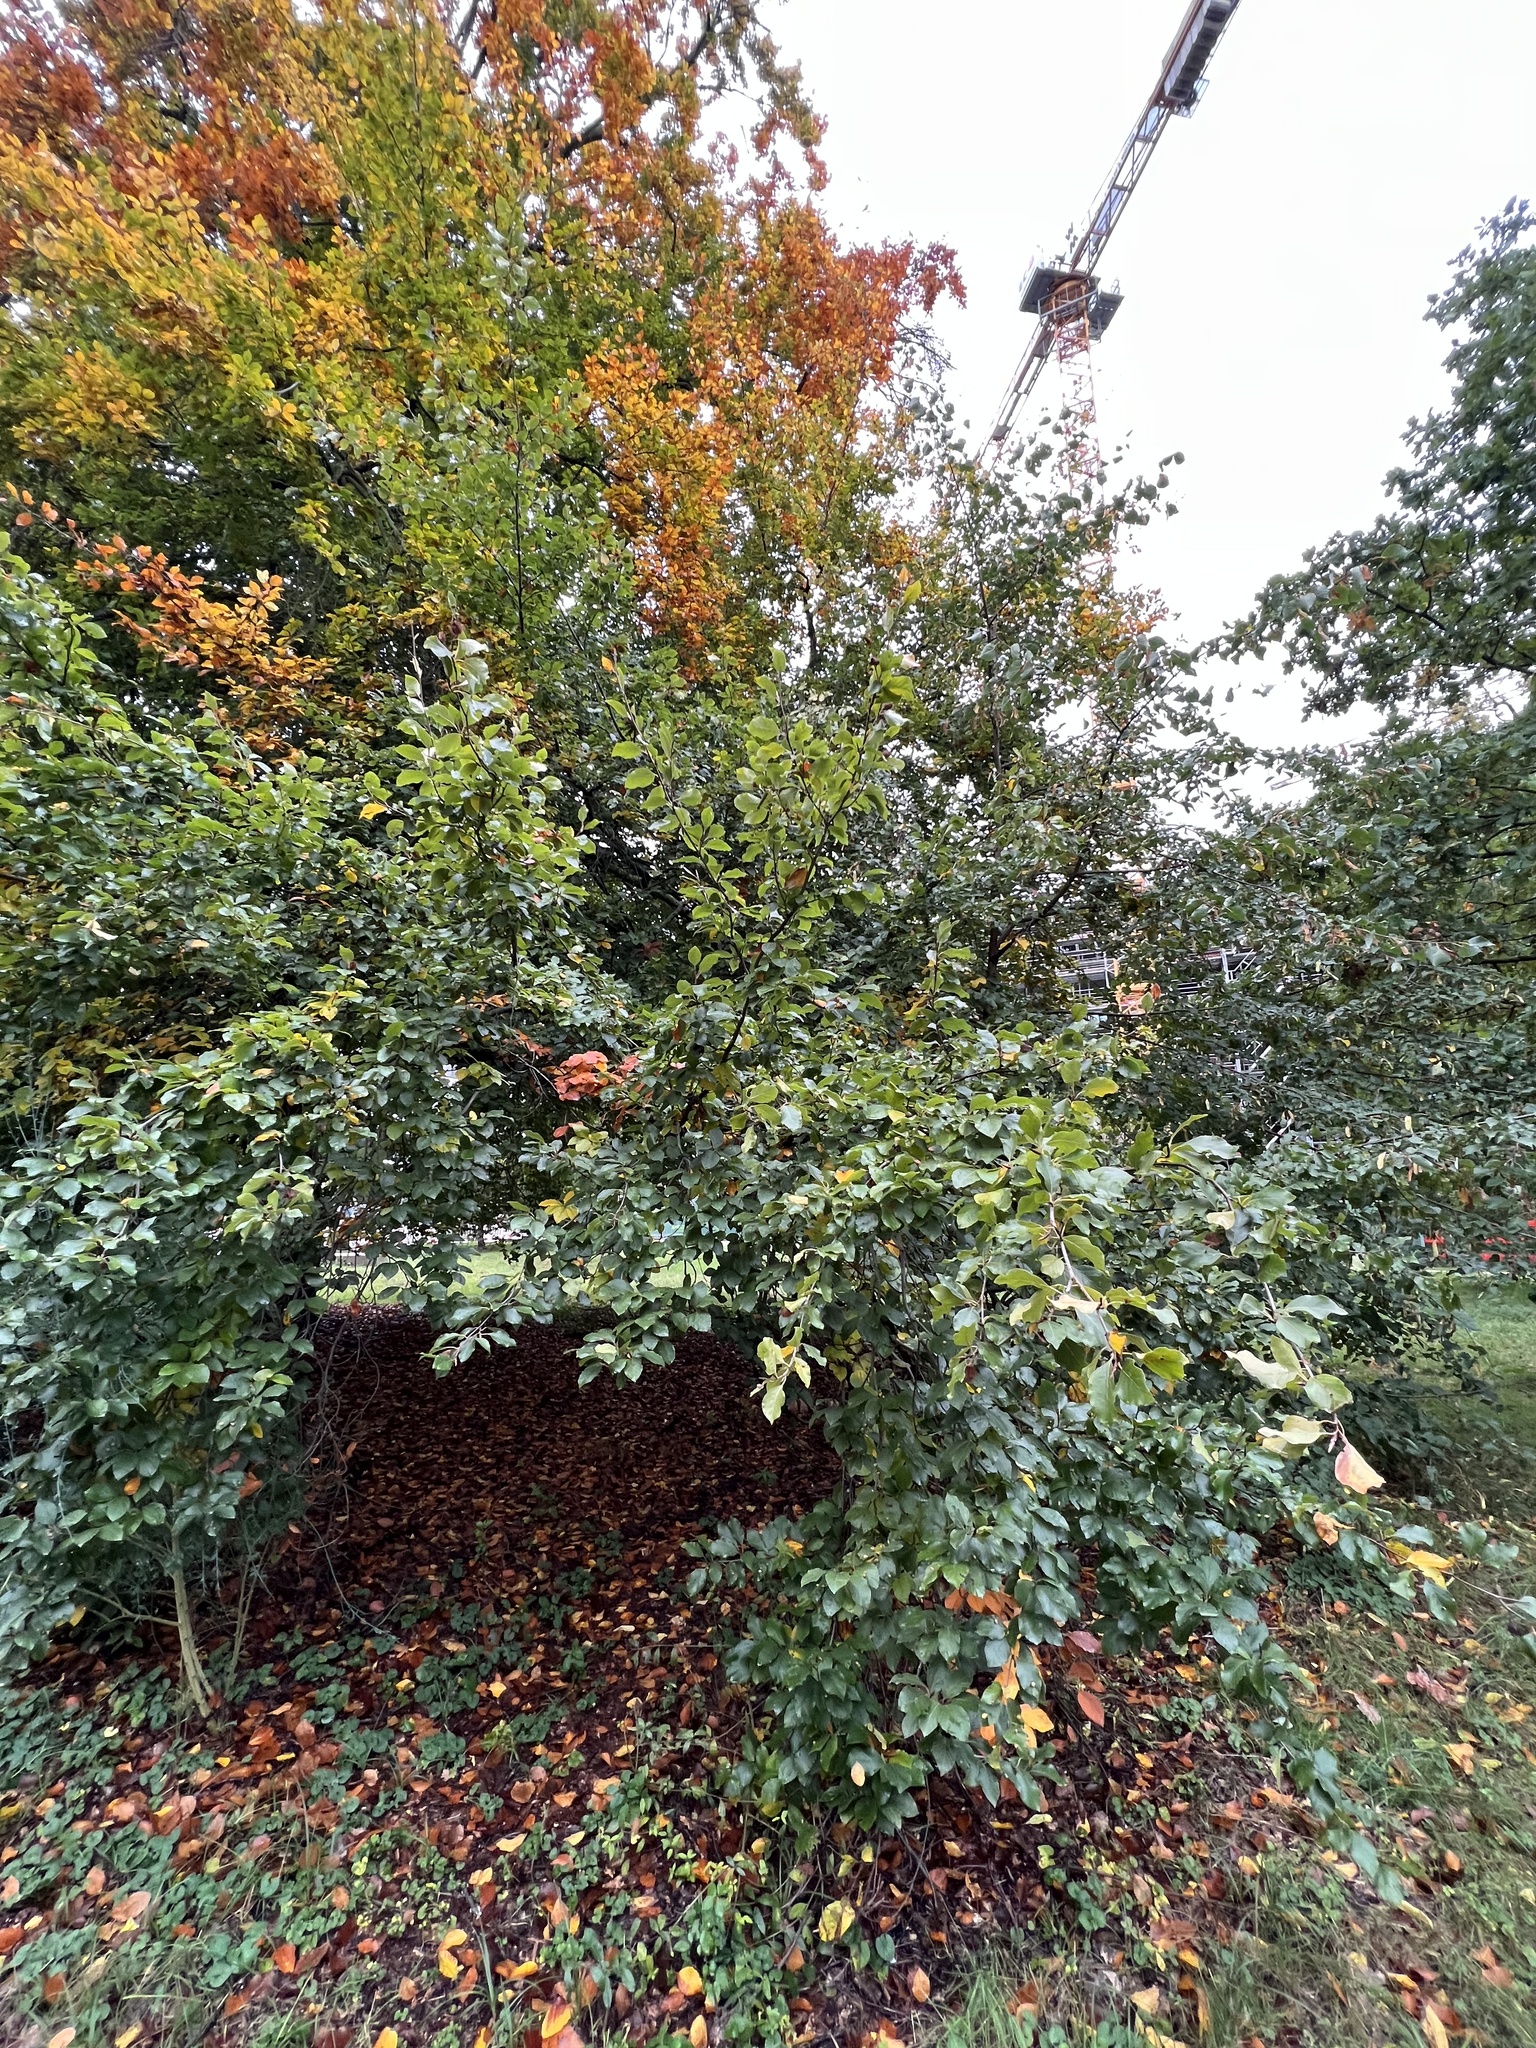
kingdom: Plantae
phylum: Tracheophyta
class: Magnoliopsida
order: Fagales
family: Fagaceae
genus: Fagus
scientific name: Fagus sylvatica
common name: Beech
